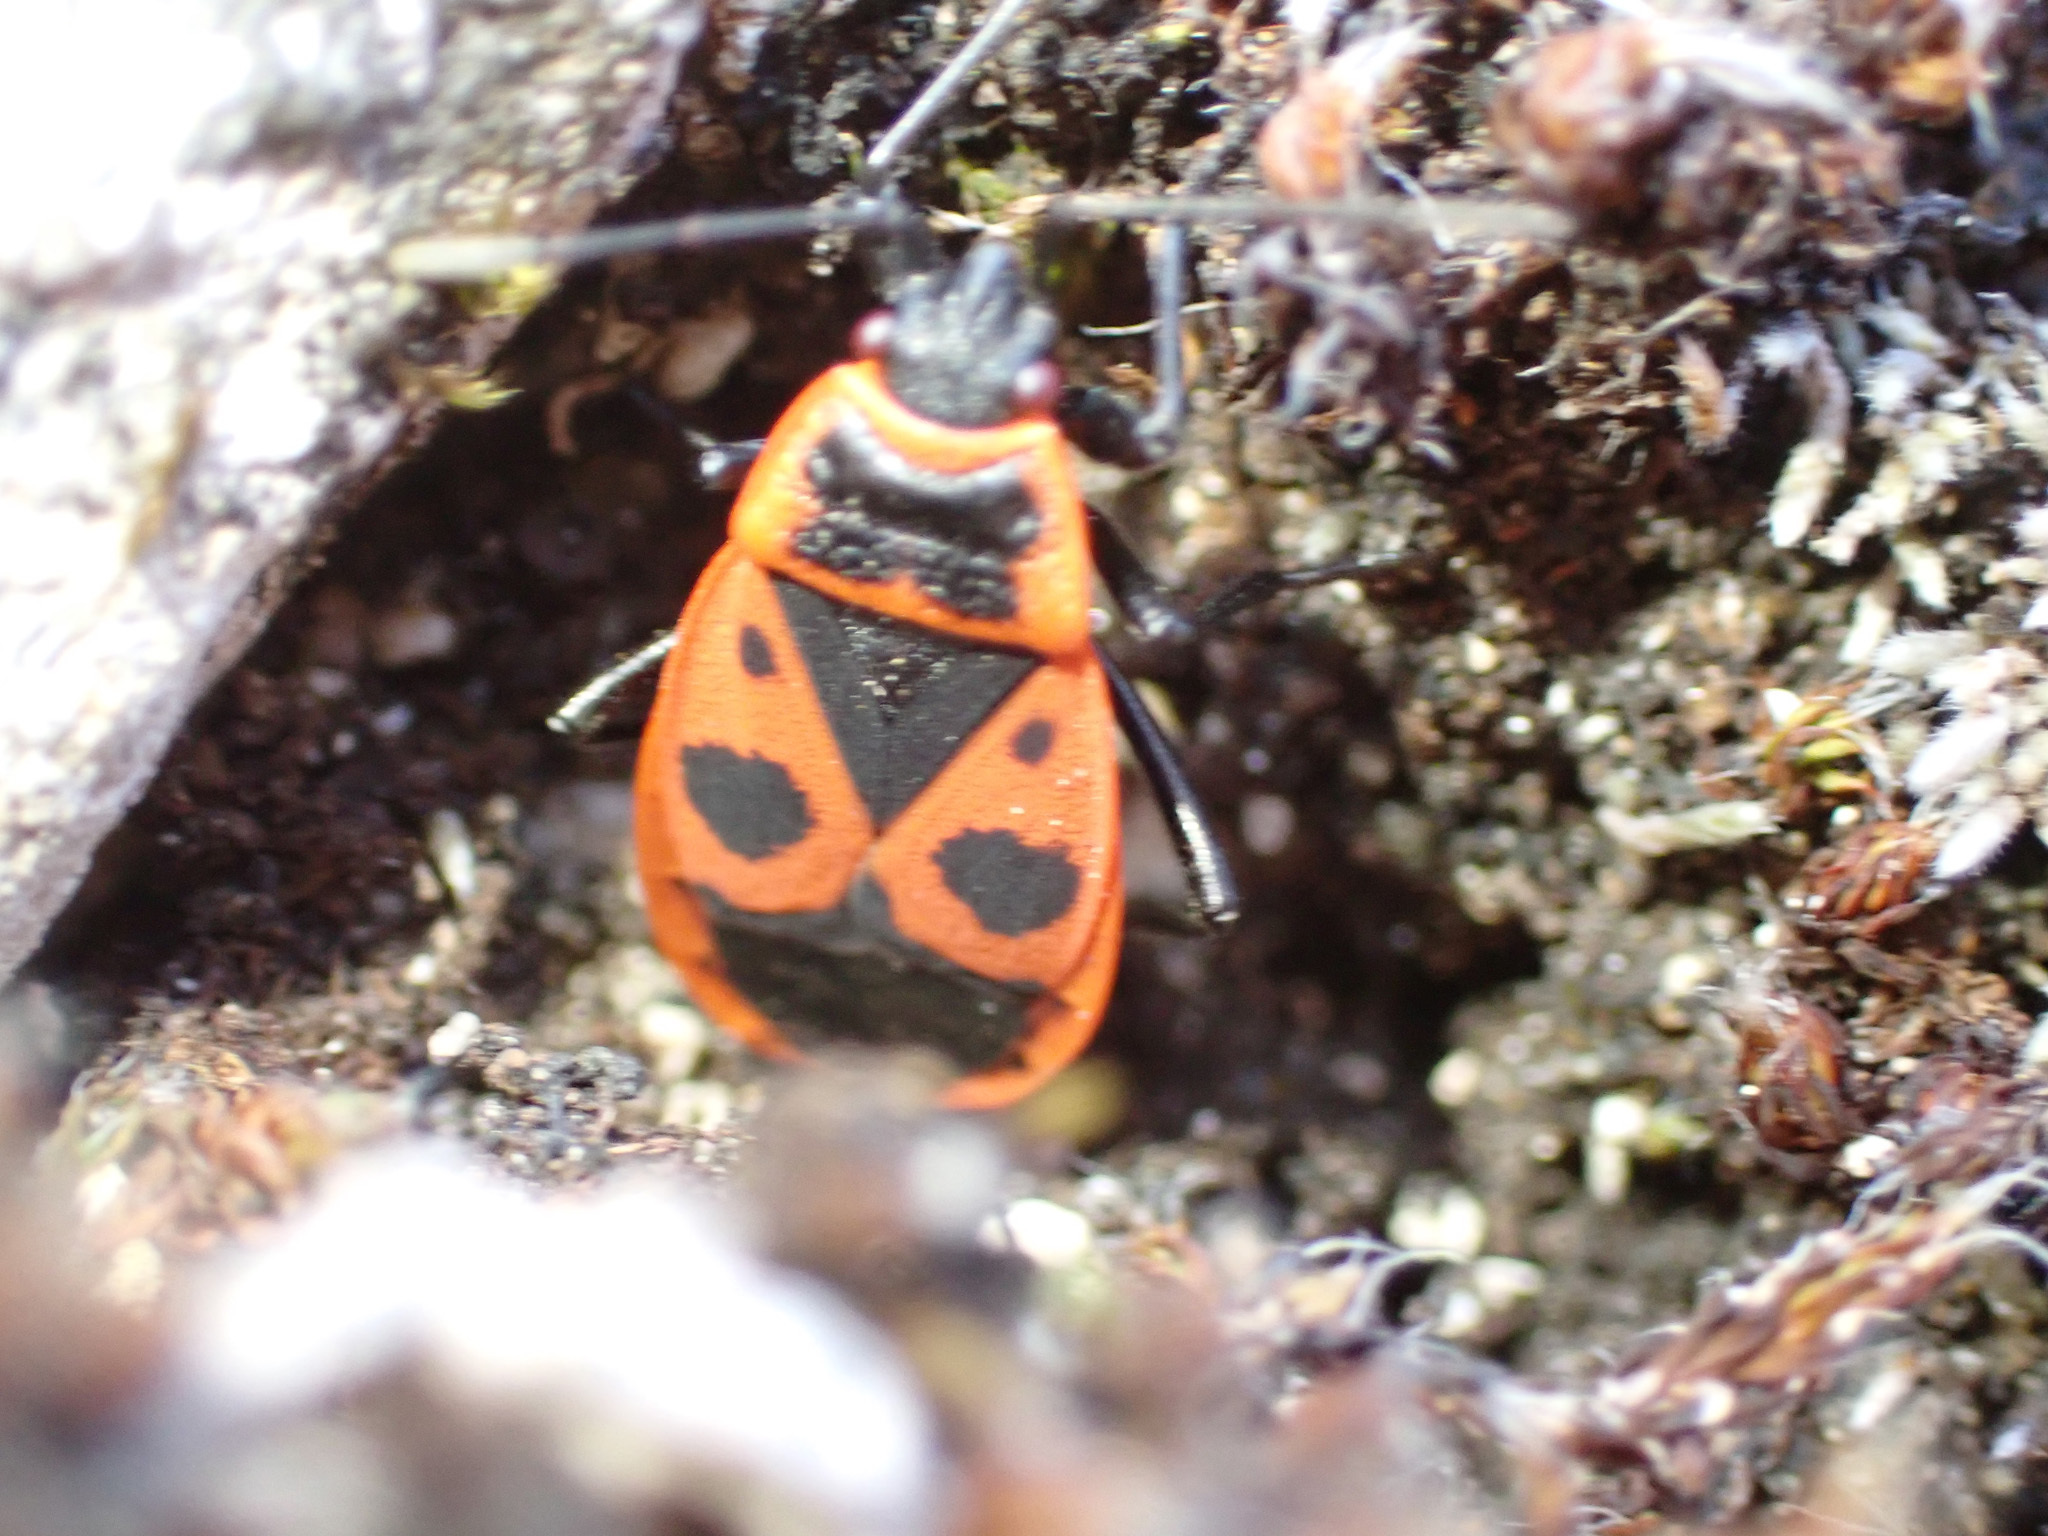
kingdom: Animalia
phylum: Arthropoda
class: Insecta
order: Hemiptera
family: Pyrrhocoridae
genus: Pyrrhocoris
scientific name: Pyrrhocoris apterus
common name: Firebug
